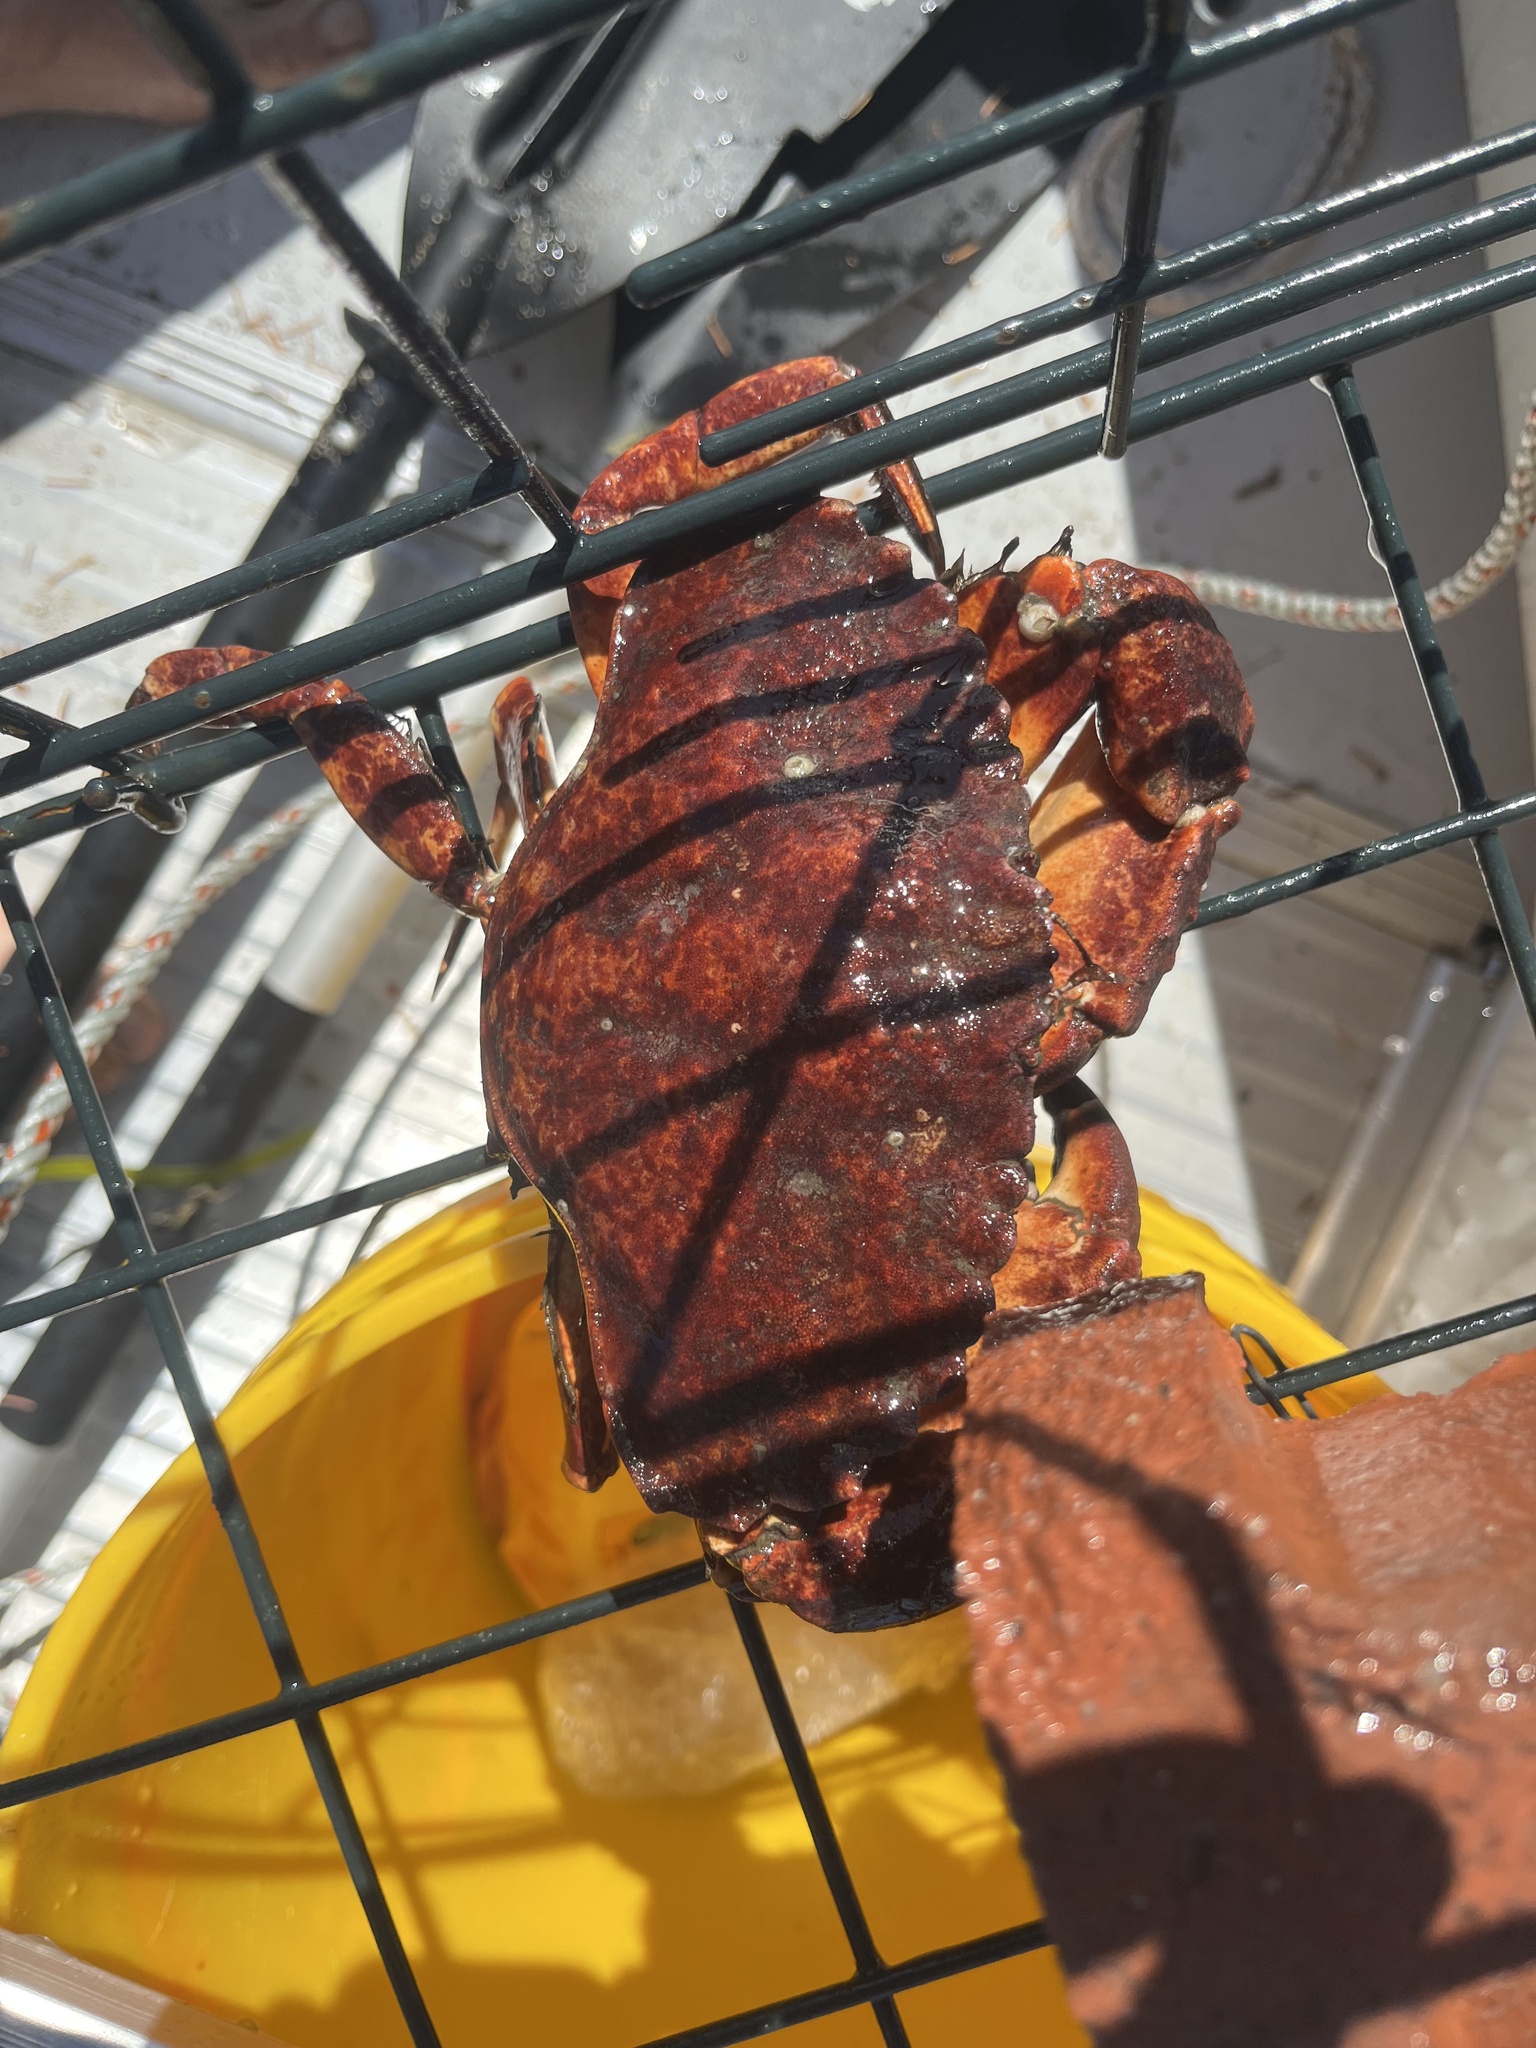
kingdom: Animalia
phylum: Arthropoda
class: Malacostraca
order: Decapoda
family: Cancridae
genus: Cancer
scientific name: Cancer productus
